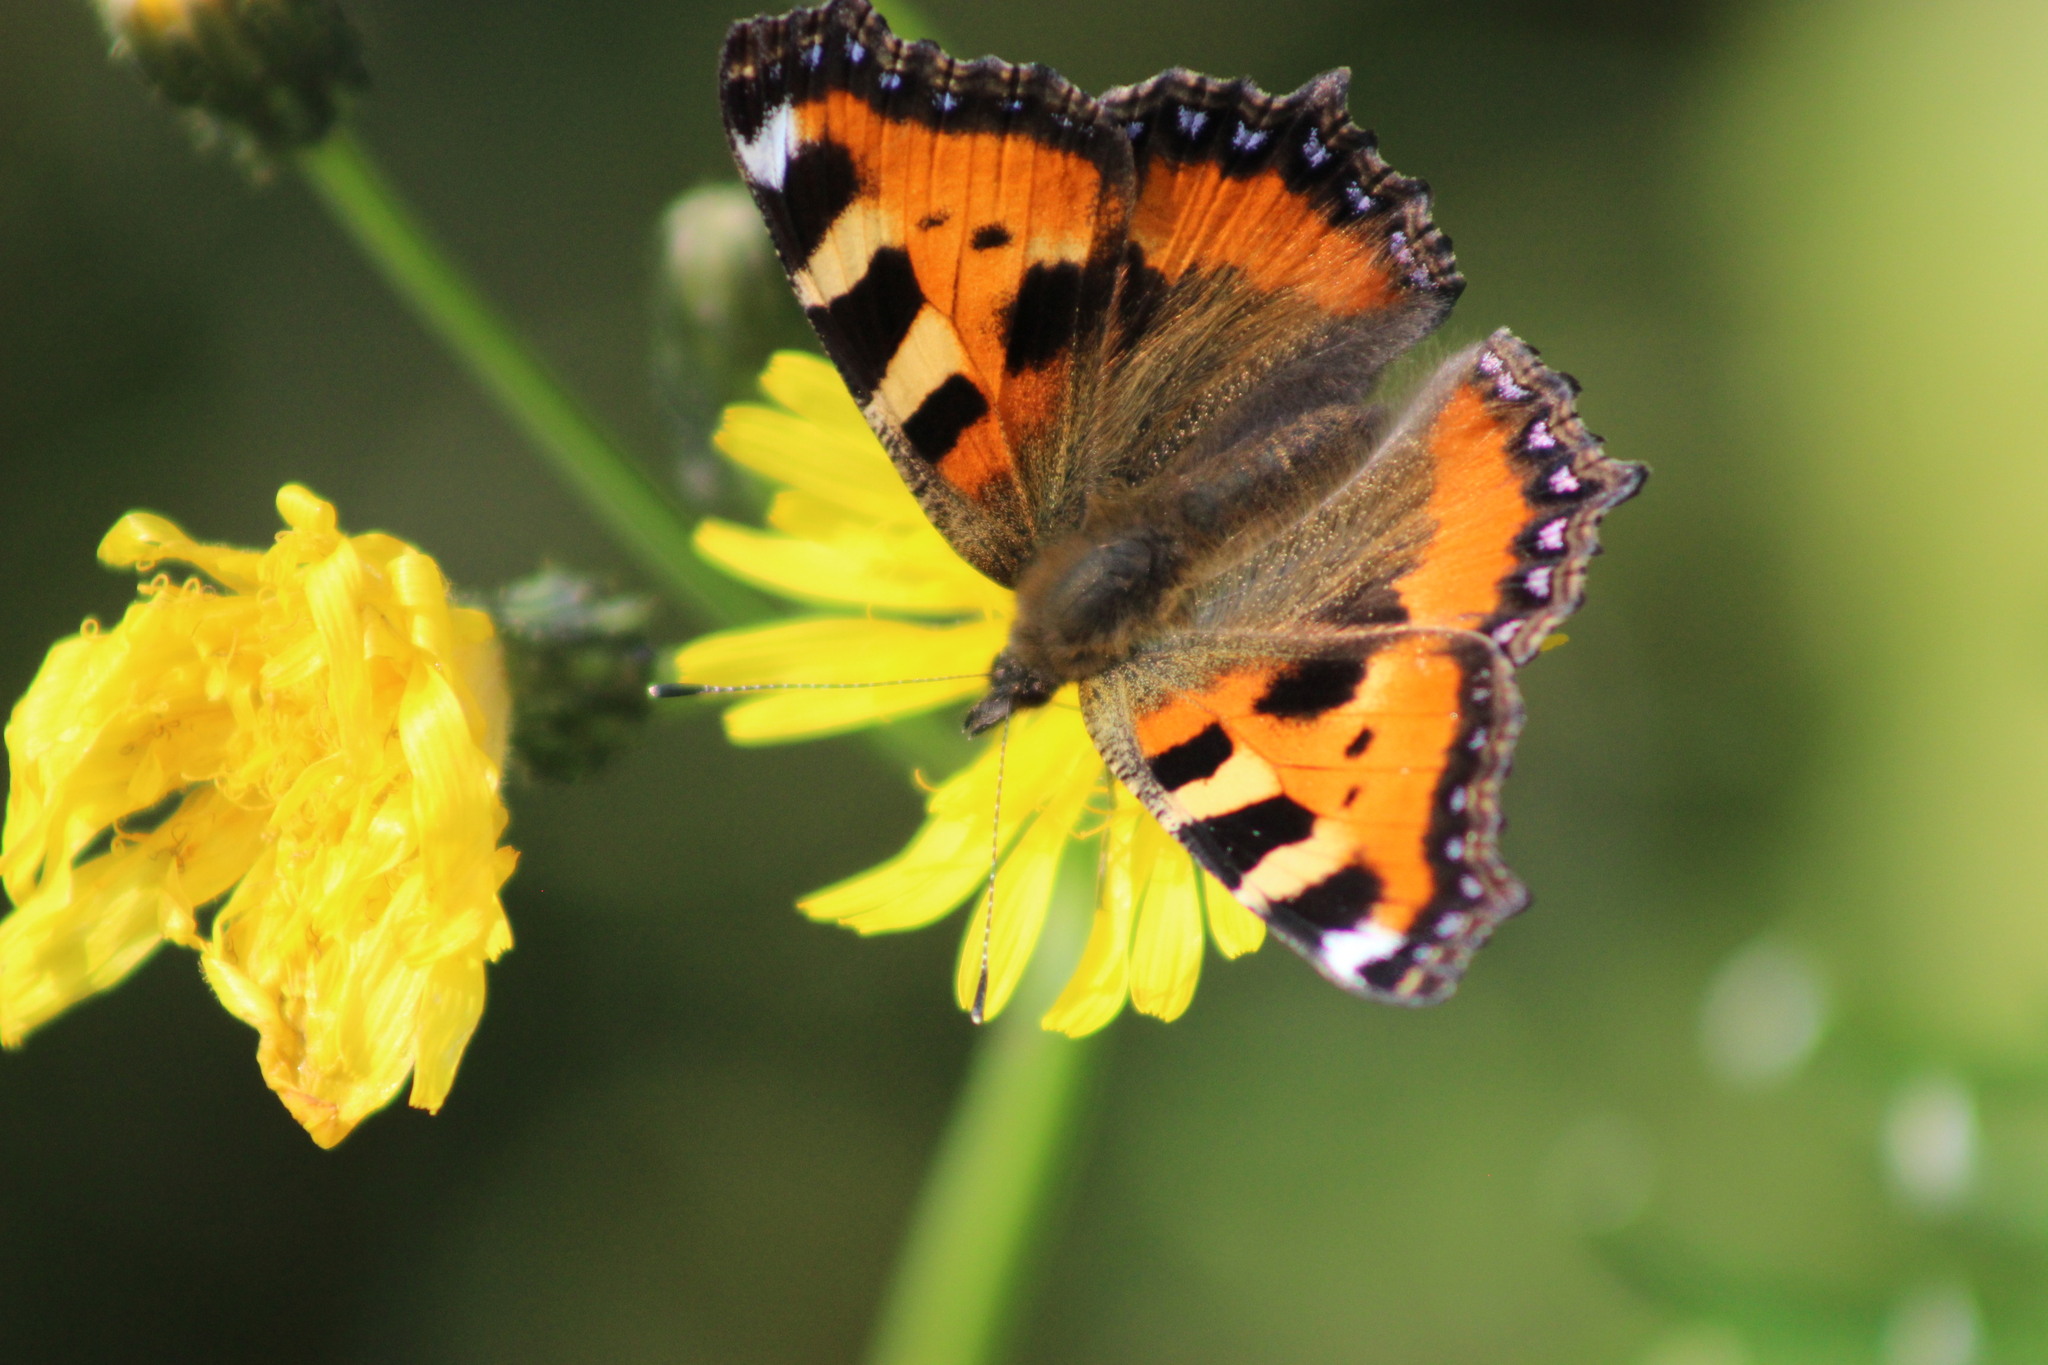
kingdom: Animalia
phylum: Arthropoda
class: Insecta
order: Lepidoptera
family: Nymphalidae
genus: Aglais
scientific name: Aglais urticae
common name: Small tortoiseshell
